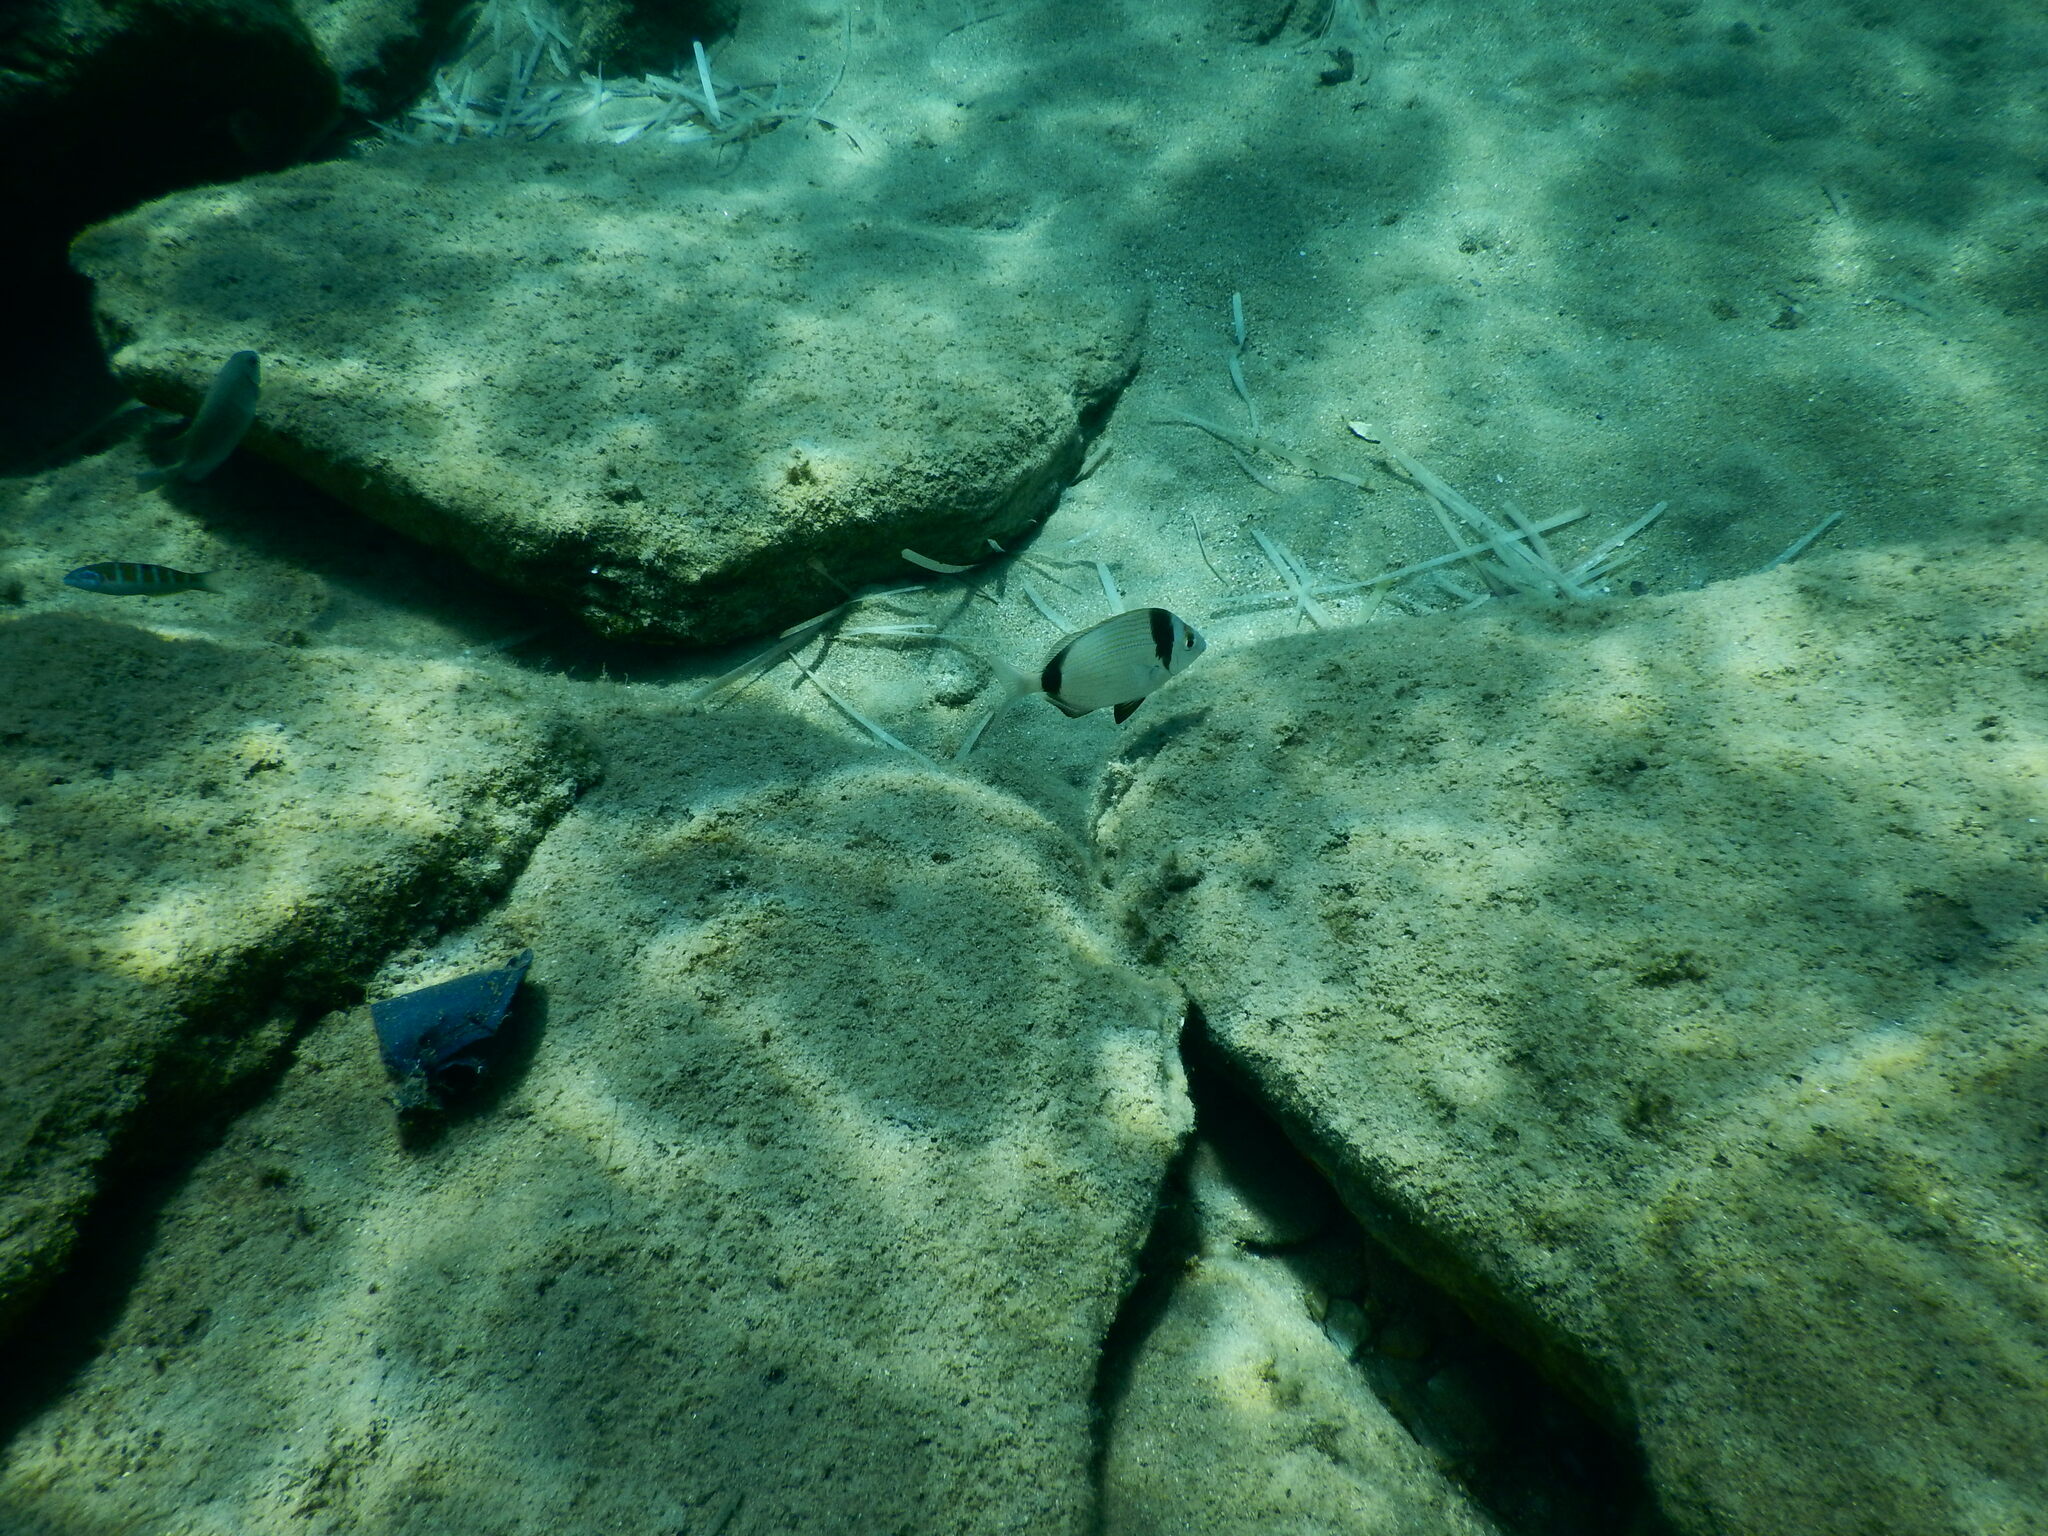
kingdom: Animalia
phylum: Chordata
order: Perciformes
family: Sparidae
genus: Diplodus
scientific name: Diplodus vulgaris
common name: Common two-banded seabream
